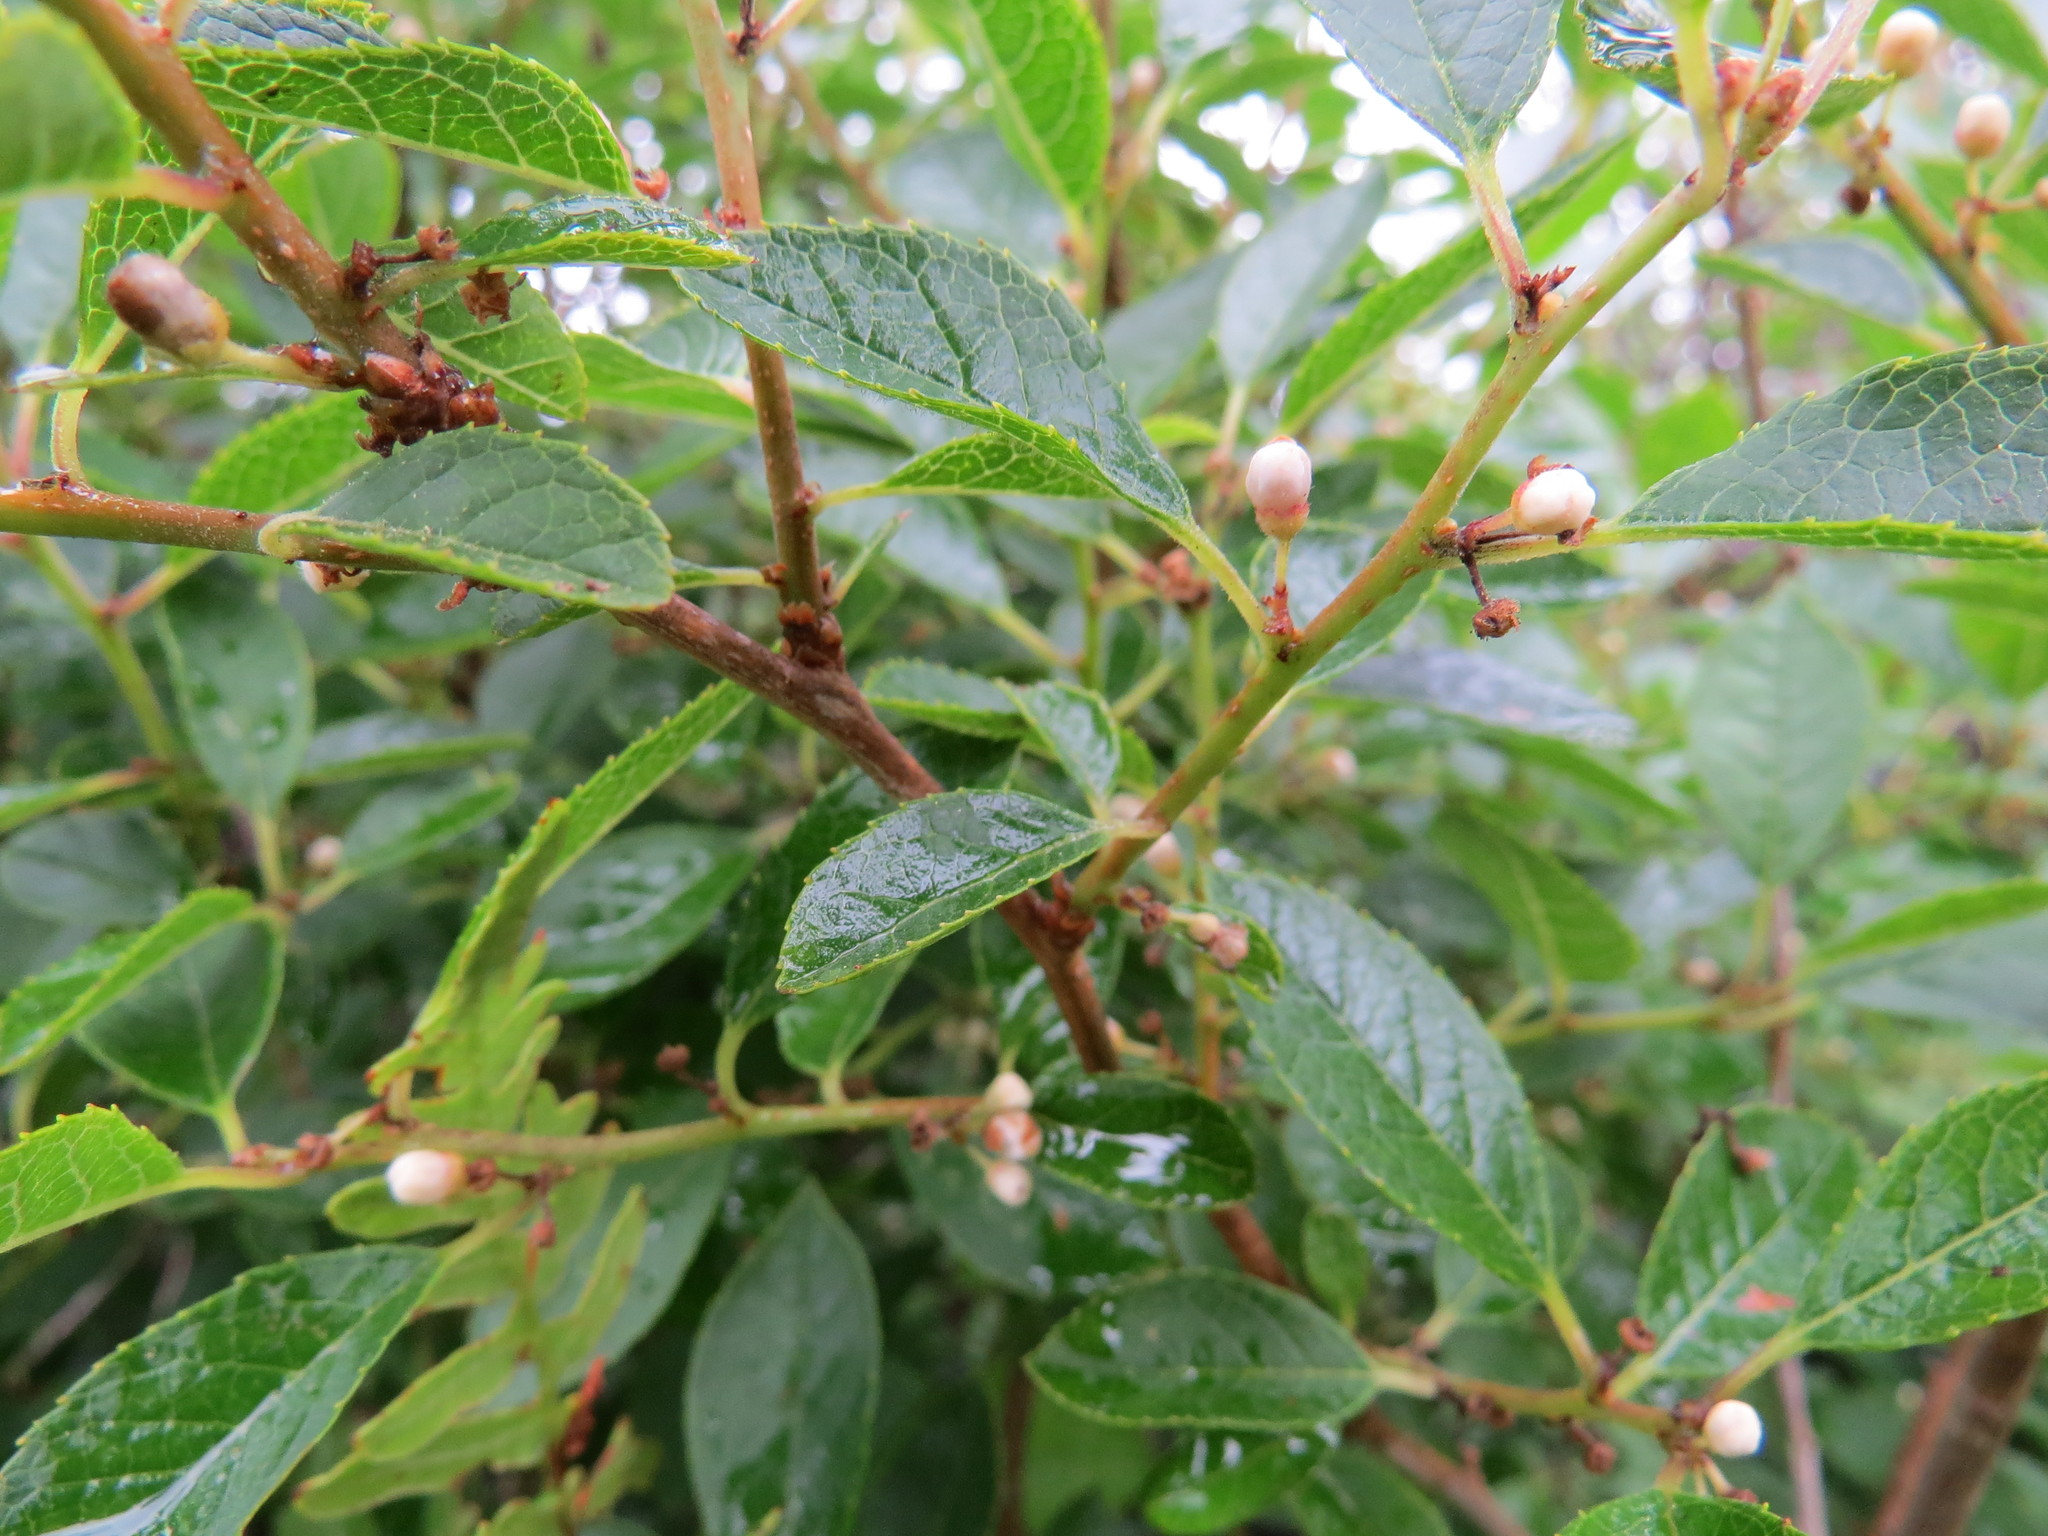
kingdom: Plantae
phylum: Tracheophyta
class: Magnoliopsida
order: Aquifoliales
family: Aquifoliaceae
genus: Ilex
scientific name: Ilex verticillata
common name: Virginia winterberry
